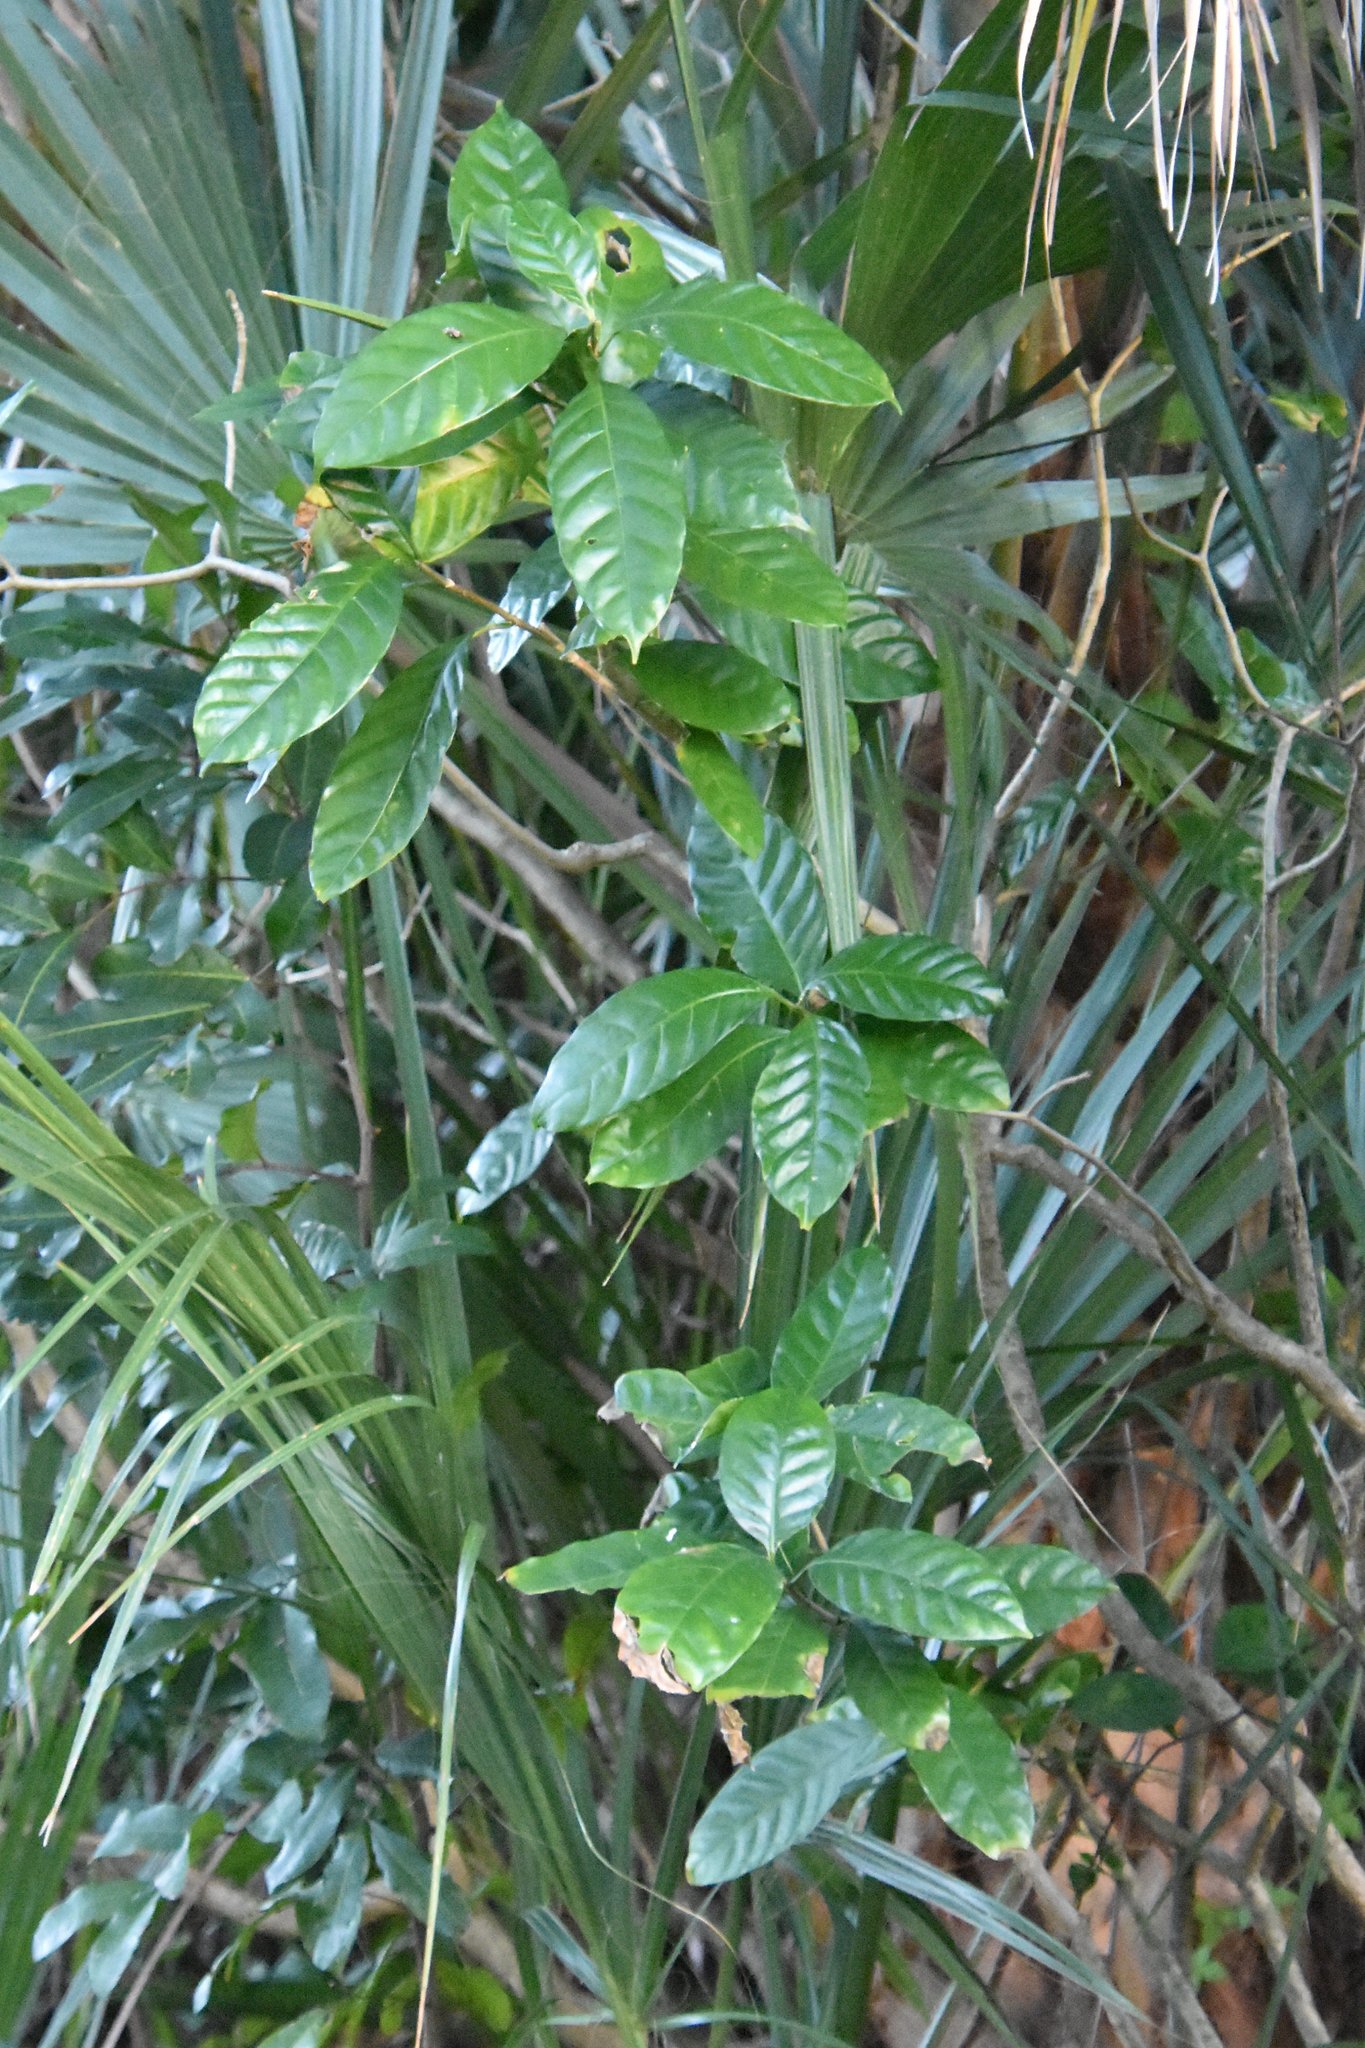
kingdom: Plantae
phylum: Tracheophyta
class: Magnoliopsida
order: Gentianales
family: Rubiaceae
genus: Psychotria
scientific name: Psychotria nervosa
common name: Bastard cankerberry
